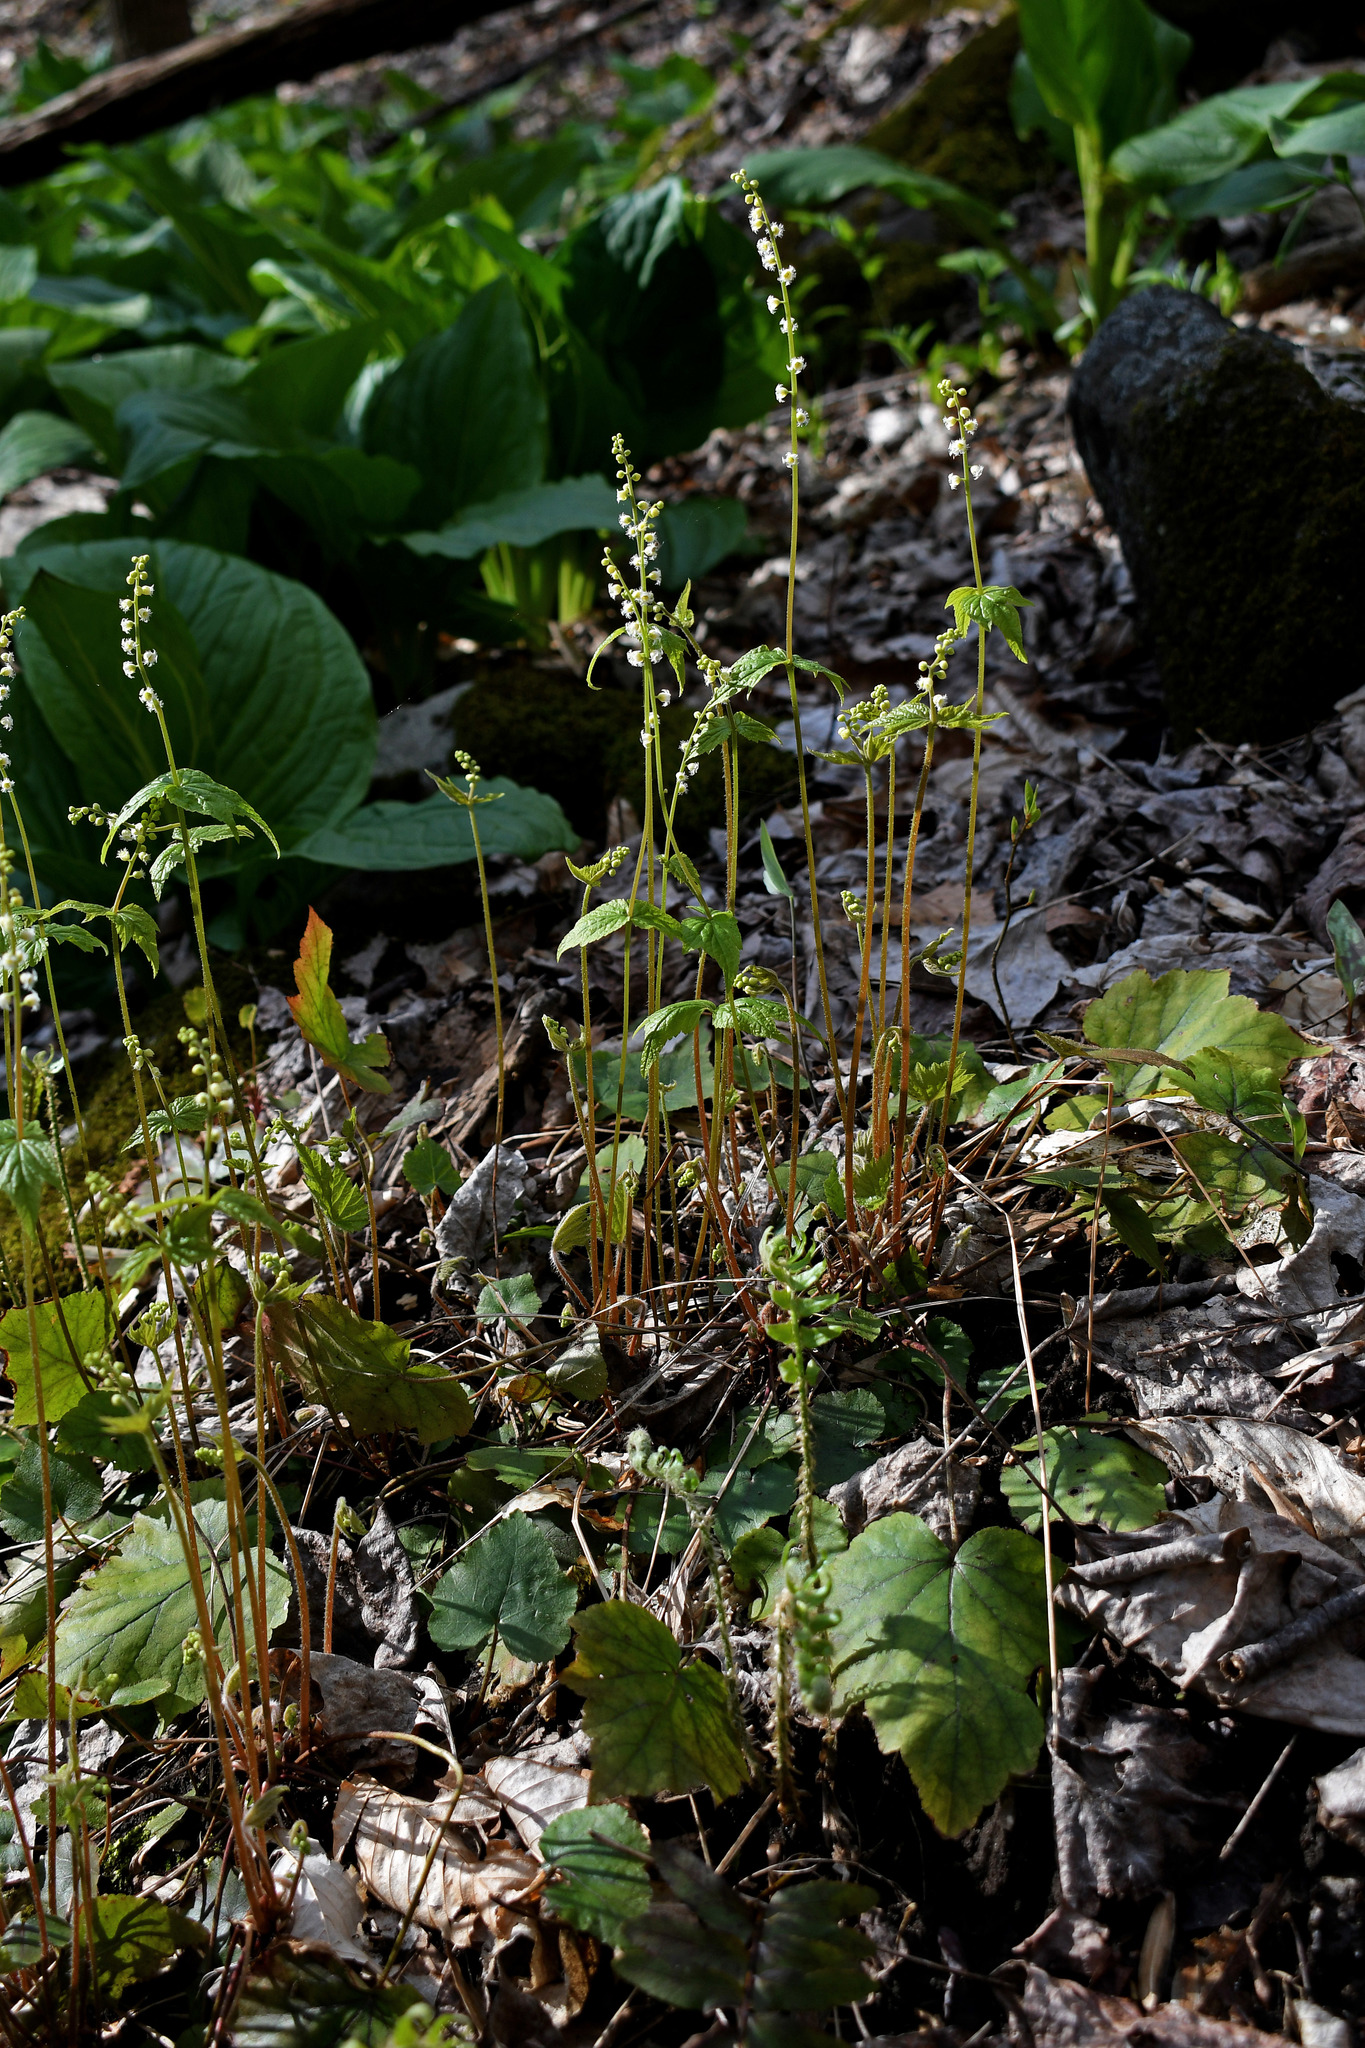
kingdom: Plantae
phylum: Tracheophyta
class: Magnoliopsida
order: Saxifragales
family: Saxifragaceae
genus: Mitella
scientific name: Mitella diphylla
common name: Coolwort
